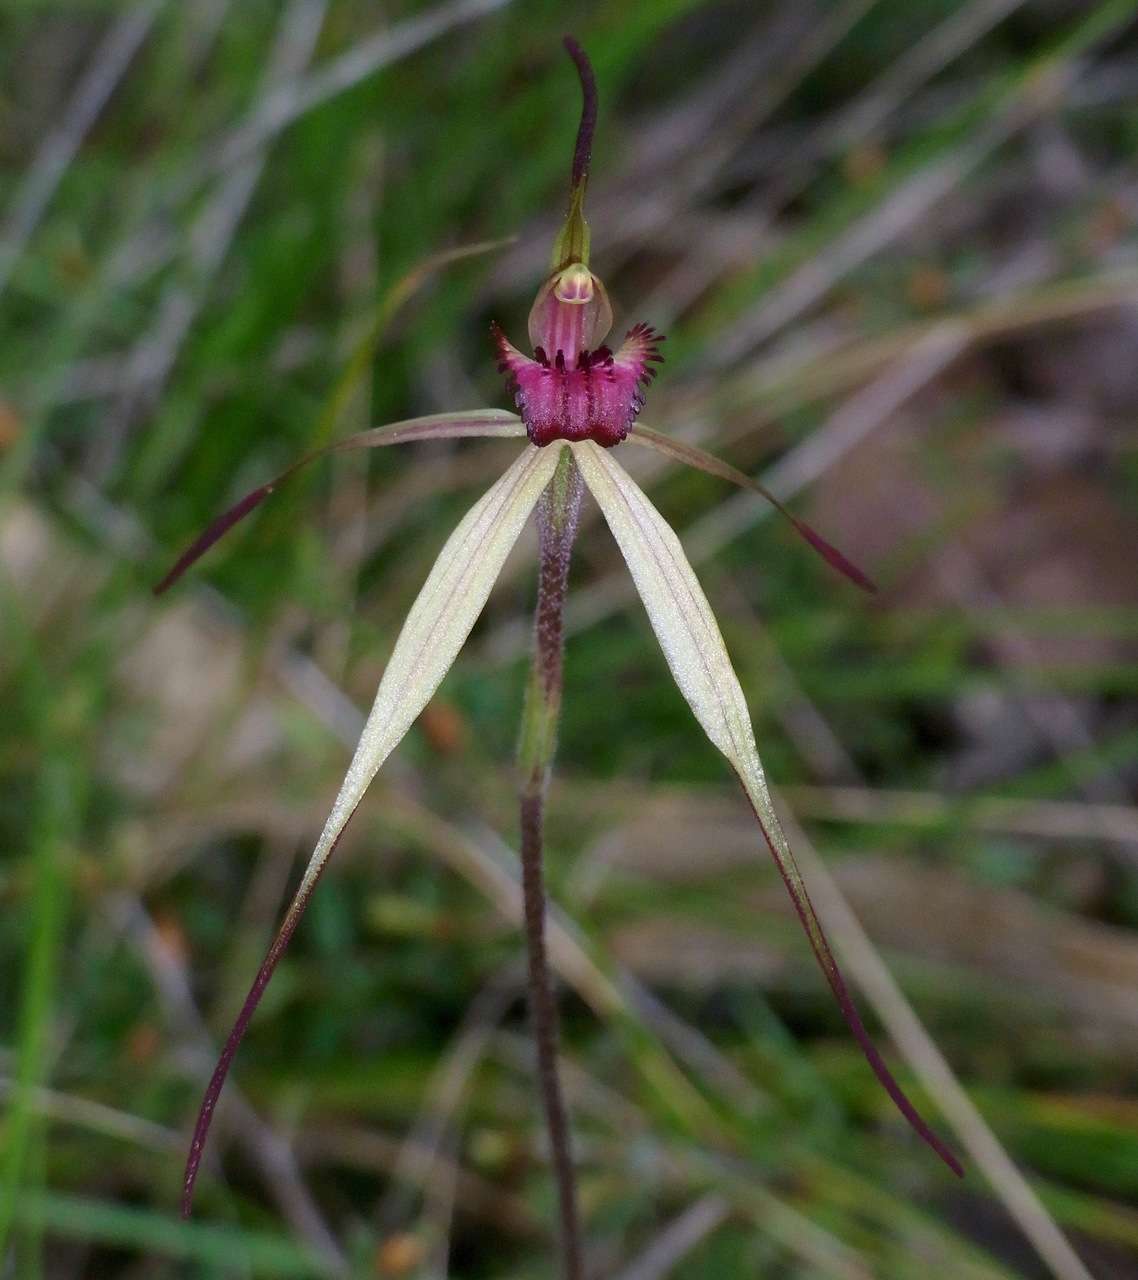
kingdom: Plantae
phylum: Tracheophyta
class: Liliopsida
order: Asparagales
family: Orchidaceae
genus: Caladenia
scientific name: Caladenia oenochila
